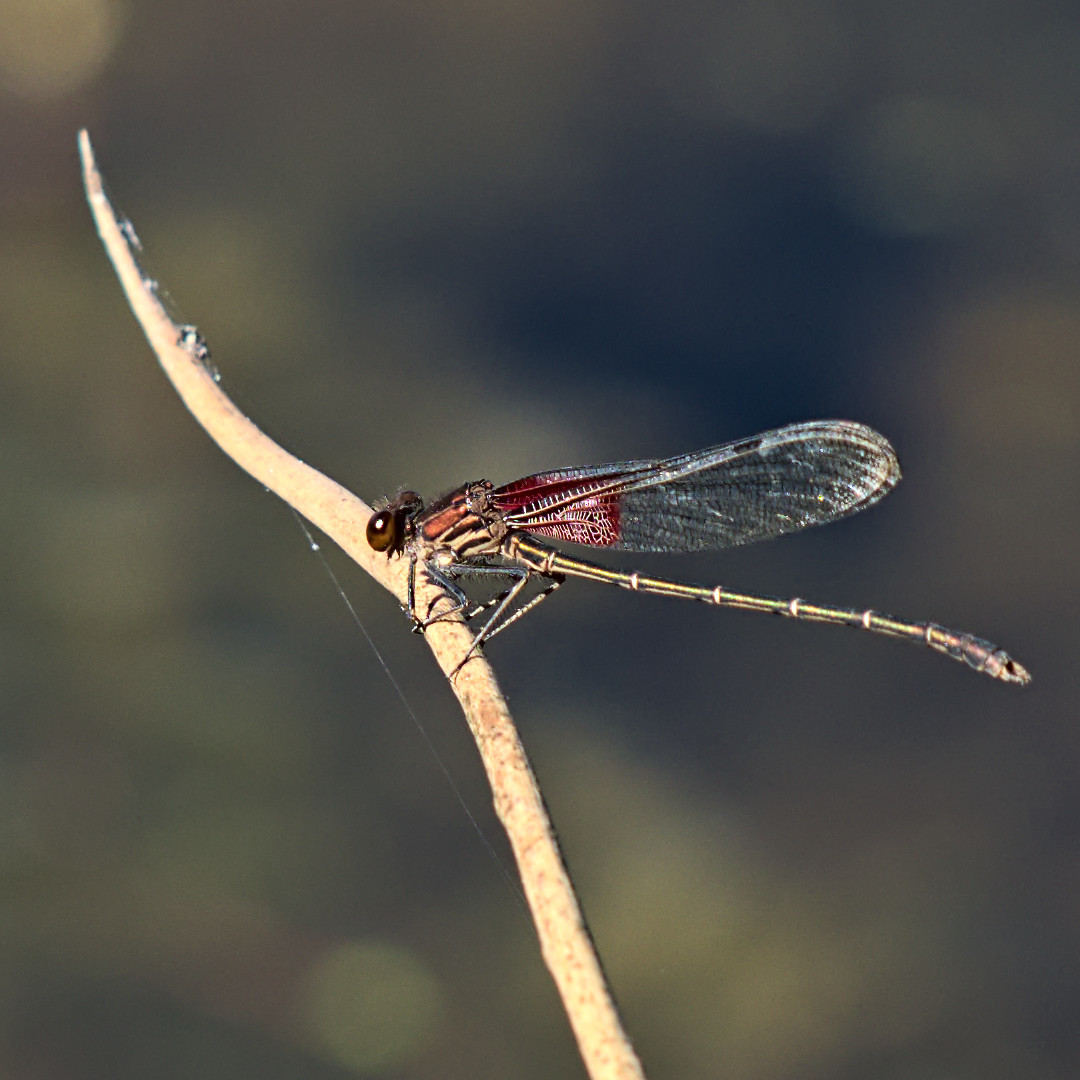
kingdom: Animalia
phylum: Arthropoda
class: Insecta
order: Odonata
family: Calopterygidae
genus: Hetaerina
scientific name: Hetaerina americana
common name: American rubyspot
